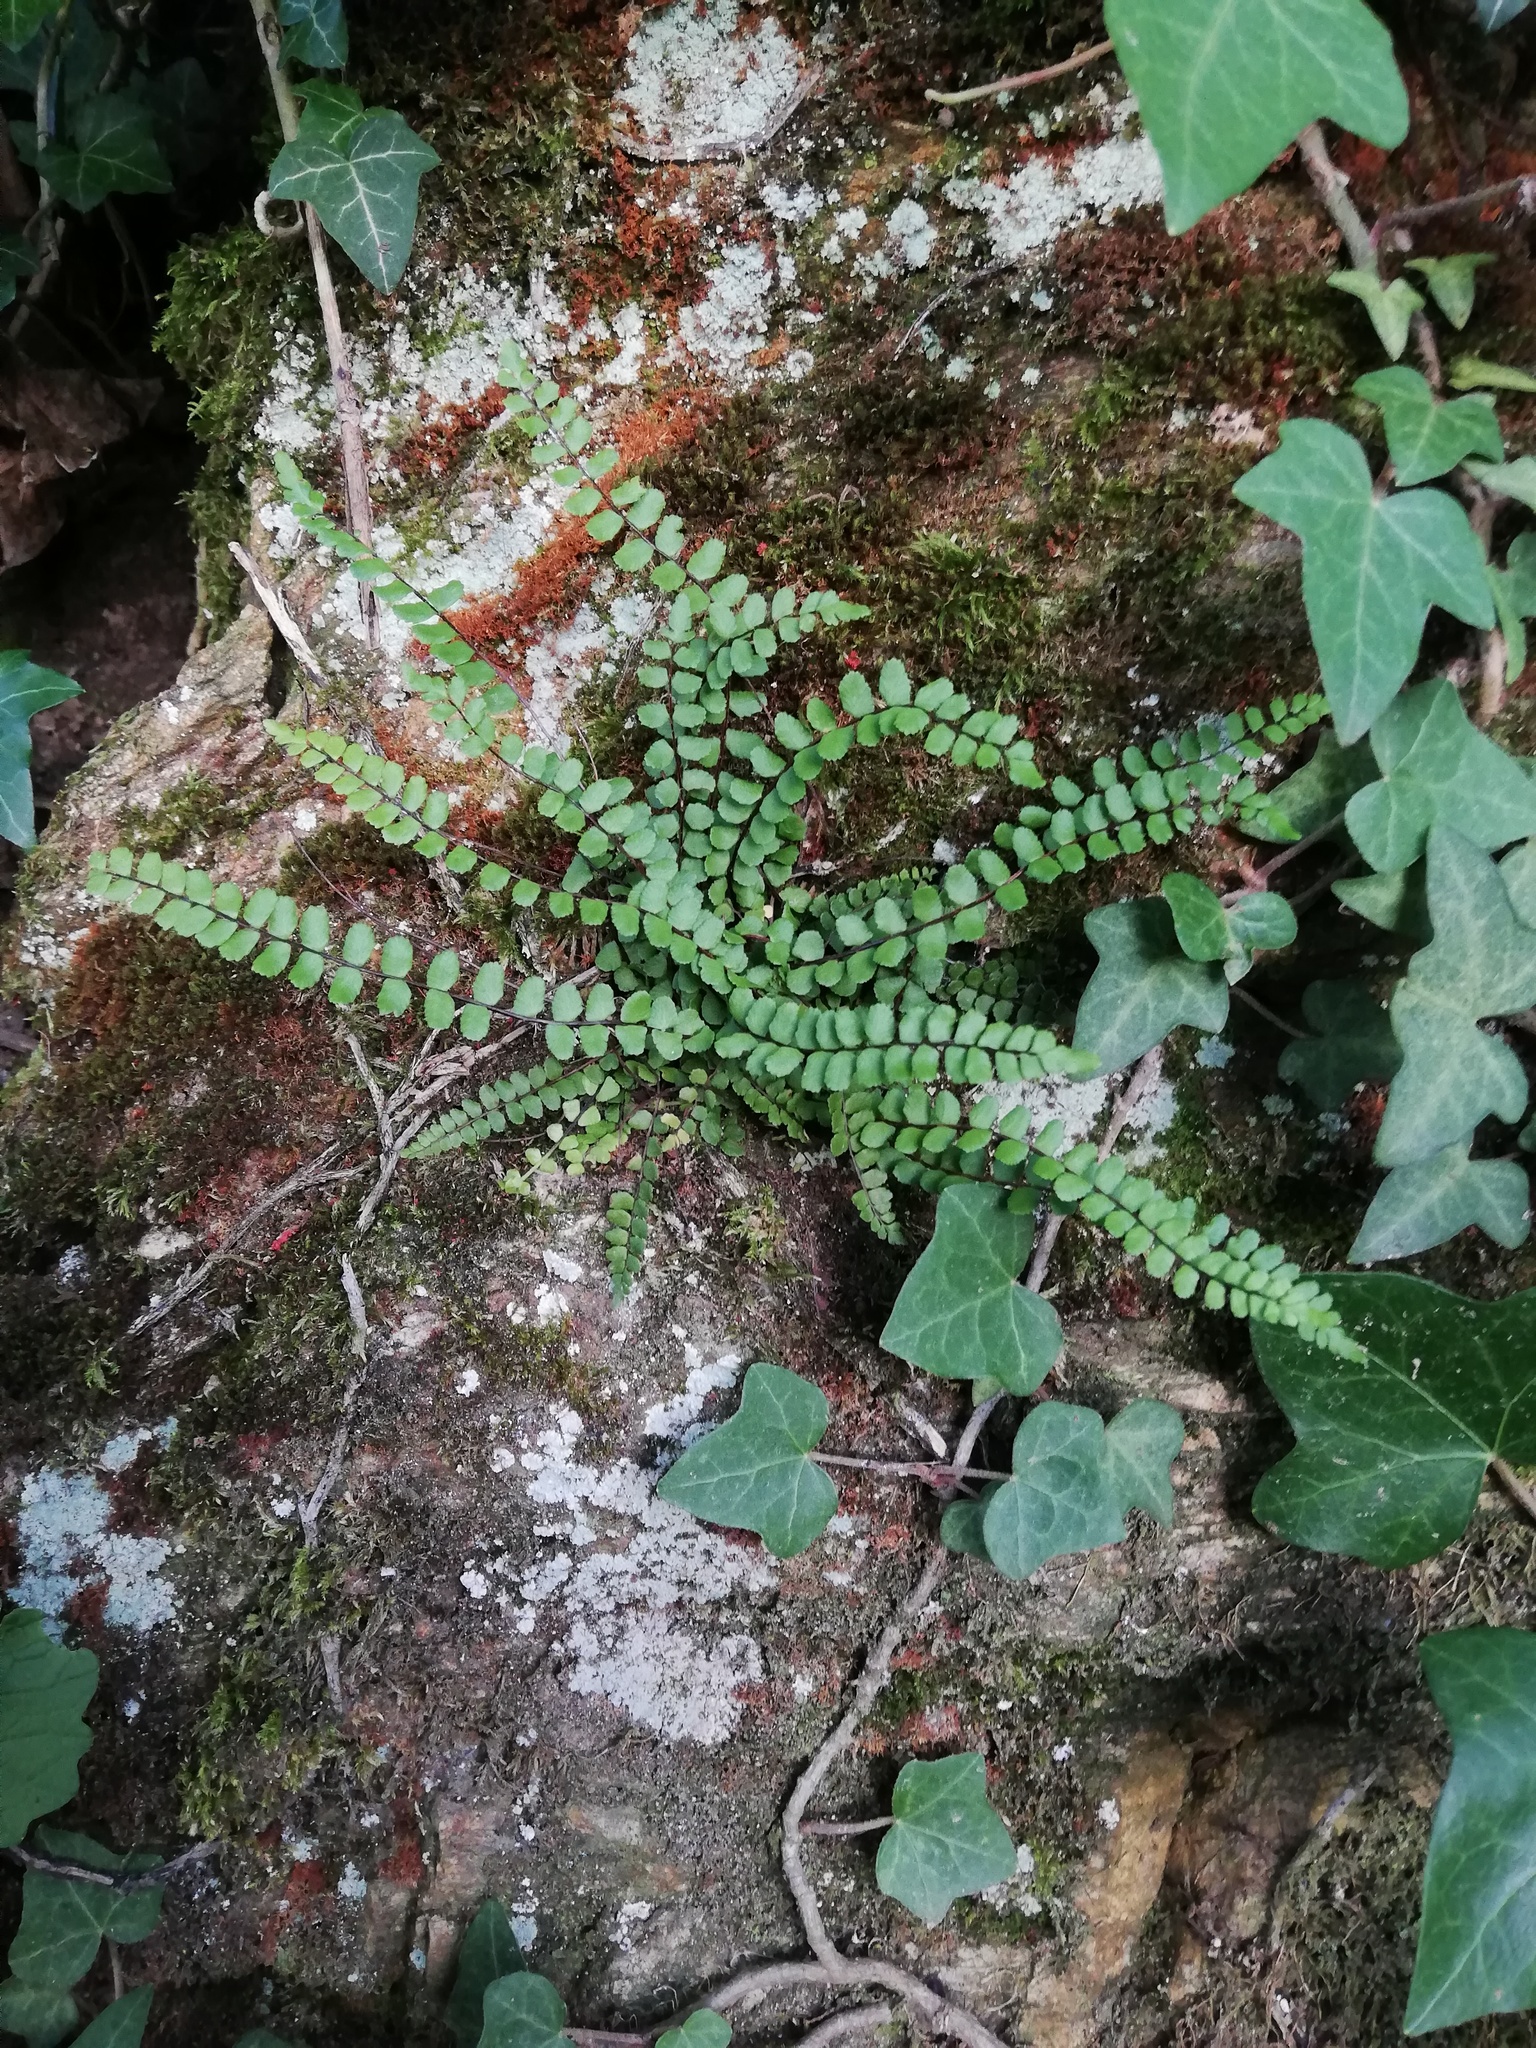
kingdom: Plantae
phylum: Tracheophyta
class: Polypodiopsida
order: Polypodiales
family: Aspleniaceae
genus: Asplenium
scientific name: Asplenium trichomanes
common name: Maidenhair spleenwort
